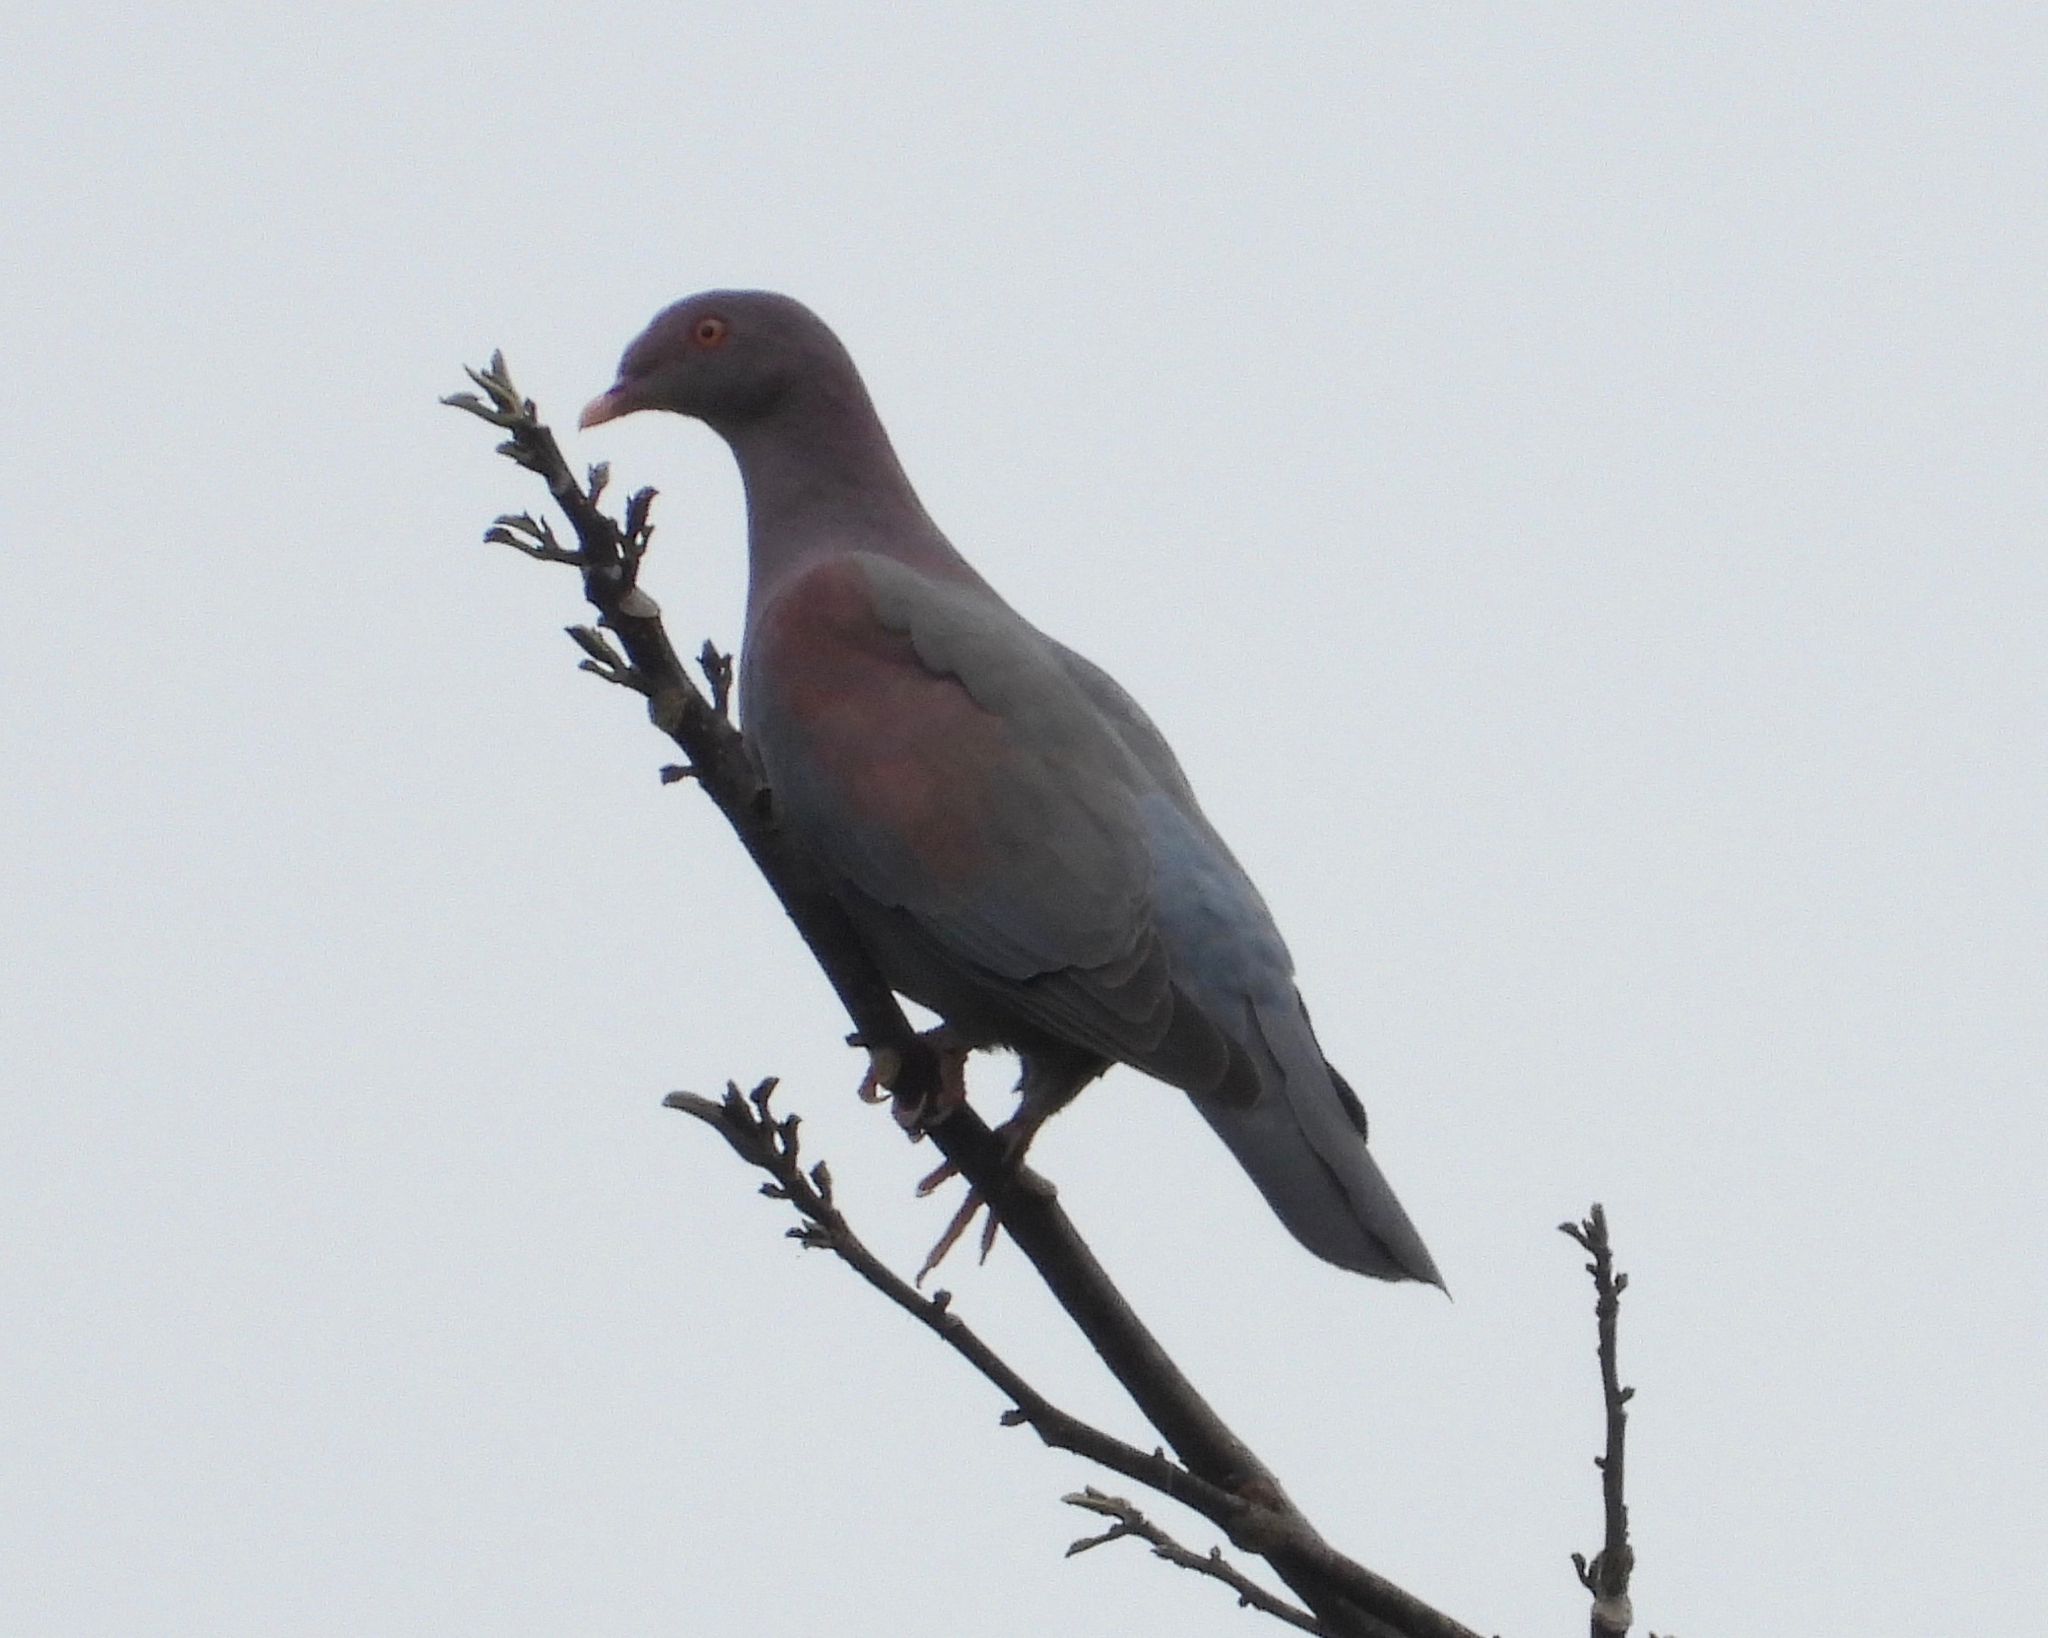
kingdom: Animalia
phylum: Chordata
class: Aves
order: Columbiformes
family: Columbidae
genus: Patagioenas
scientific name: Patagioenas flavirostris
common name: Red-billed pigeon
